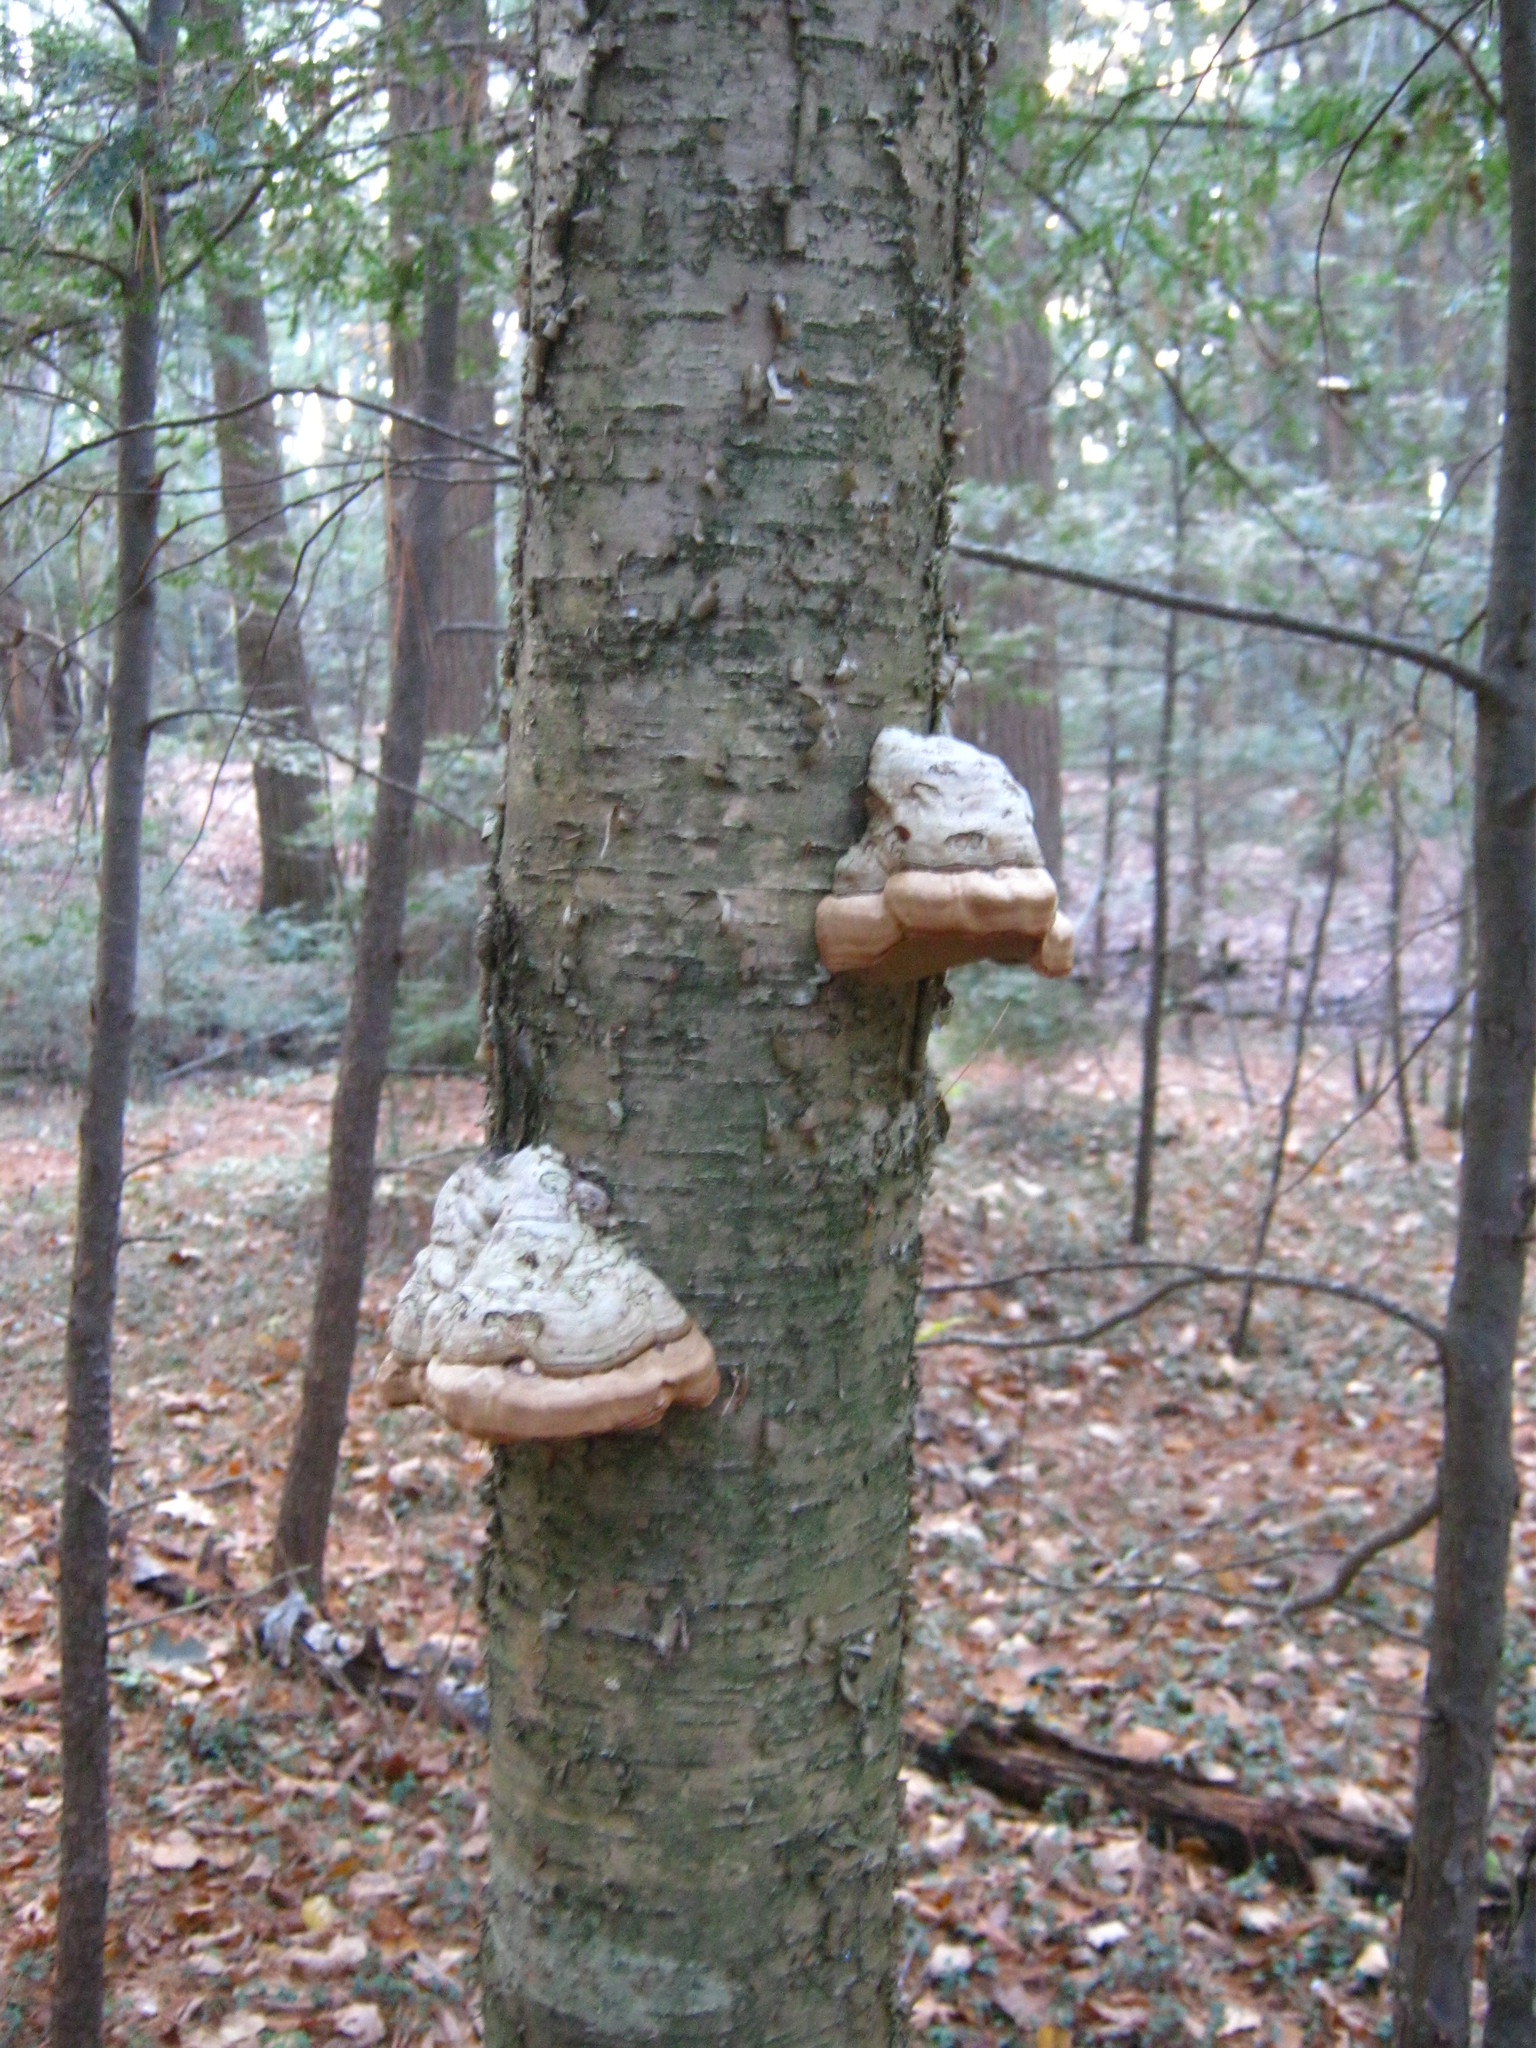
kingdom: Fungi
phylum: Basidiomycota
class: Agaricomycetes
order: Polyporales
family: Polyporaceae
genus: Fomes
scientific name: Fomes fomentarius
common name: Hoof fungus
